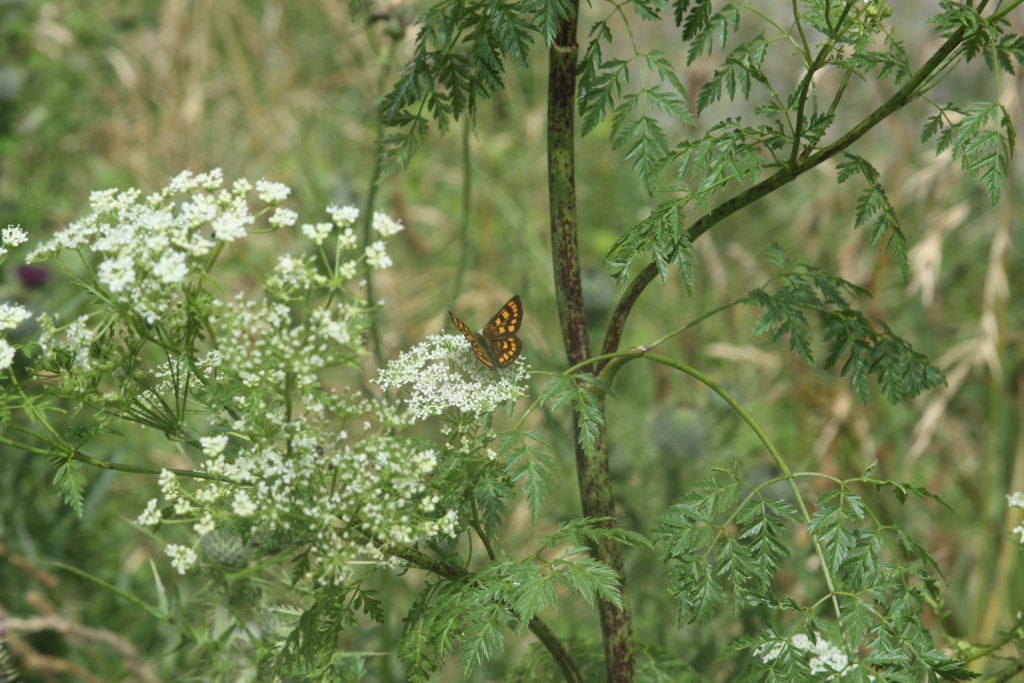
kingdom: Plantae
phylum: Tracheophyta
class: Magnoliopsida
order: Apiales
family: Apiaceae
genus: Conium
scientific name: Conium maculatum
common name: Hemlock
